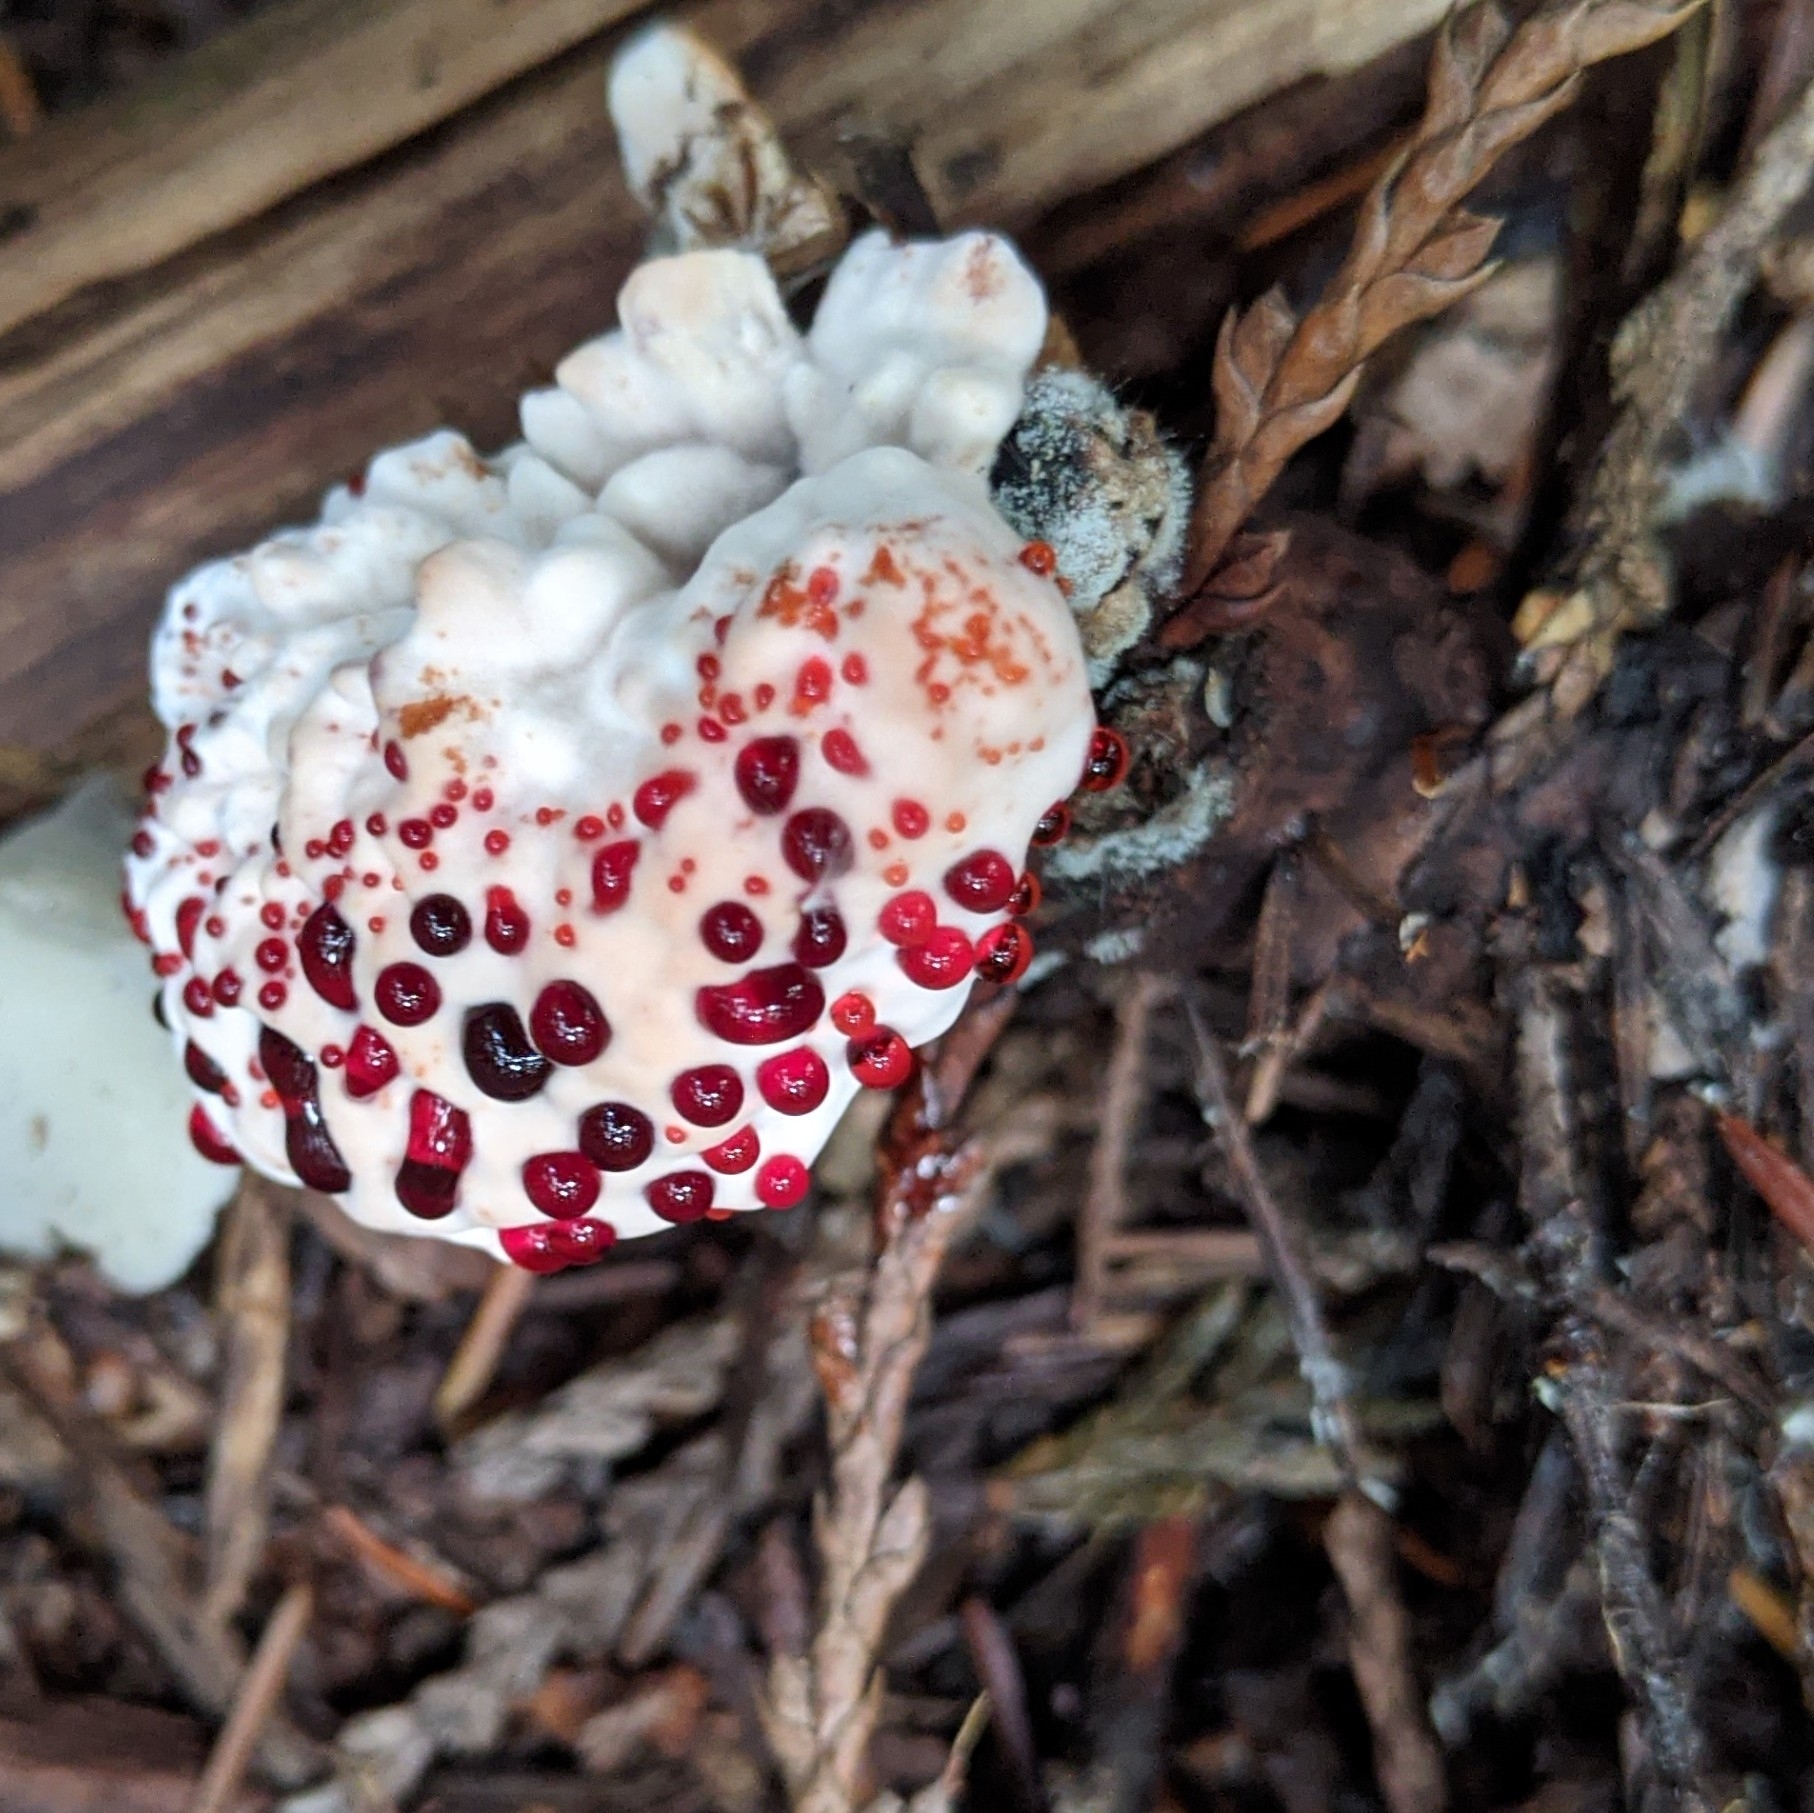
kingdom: Fungi
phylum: Basidiomycota
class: Agaricomycetes
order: Thelephorales
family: Bankeraceae
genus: Hydnellum
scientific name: Hydnellum peckii
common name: Devil's tooth
